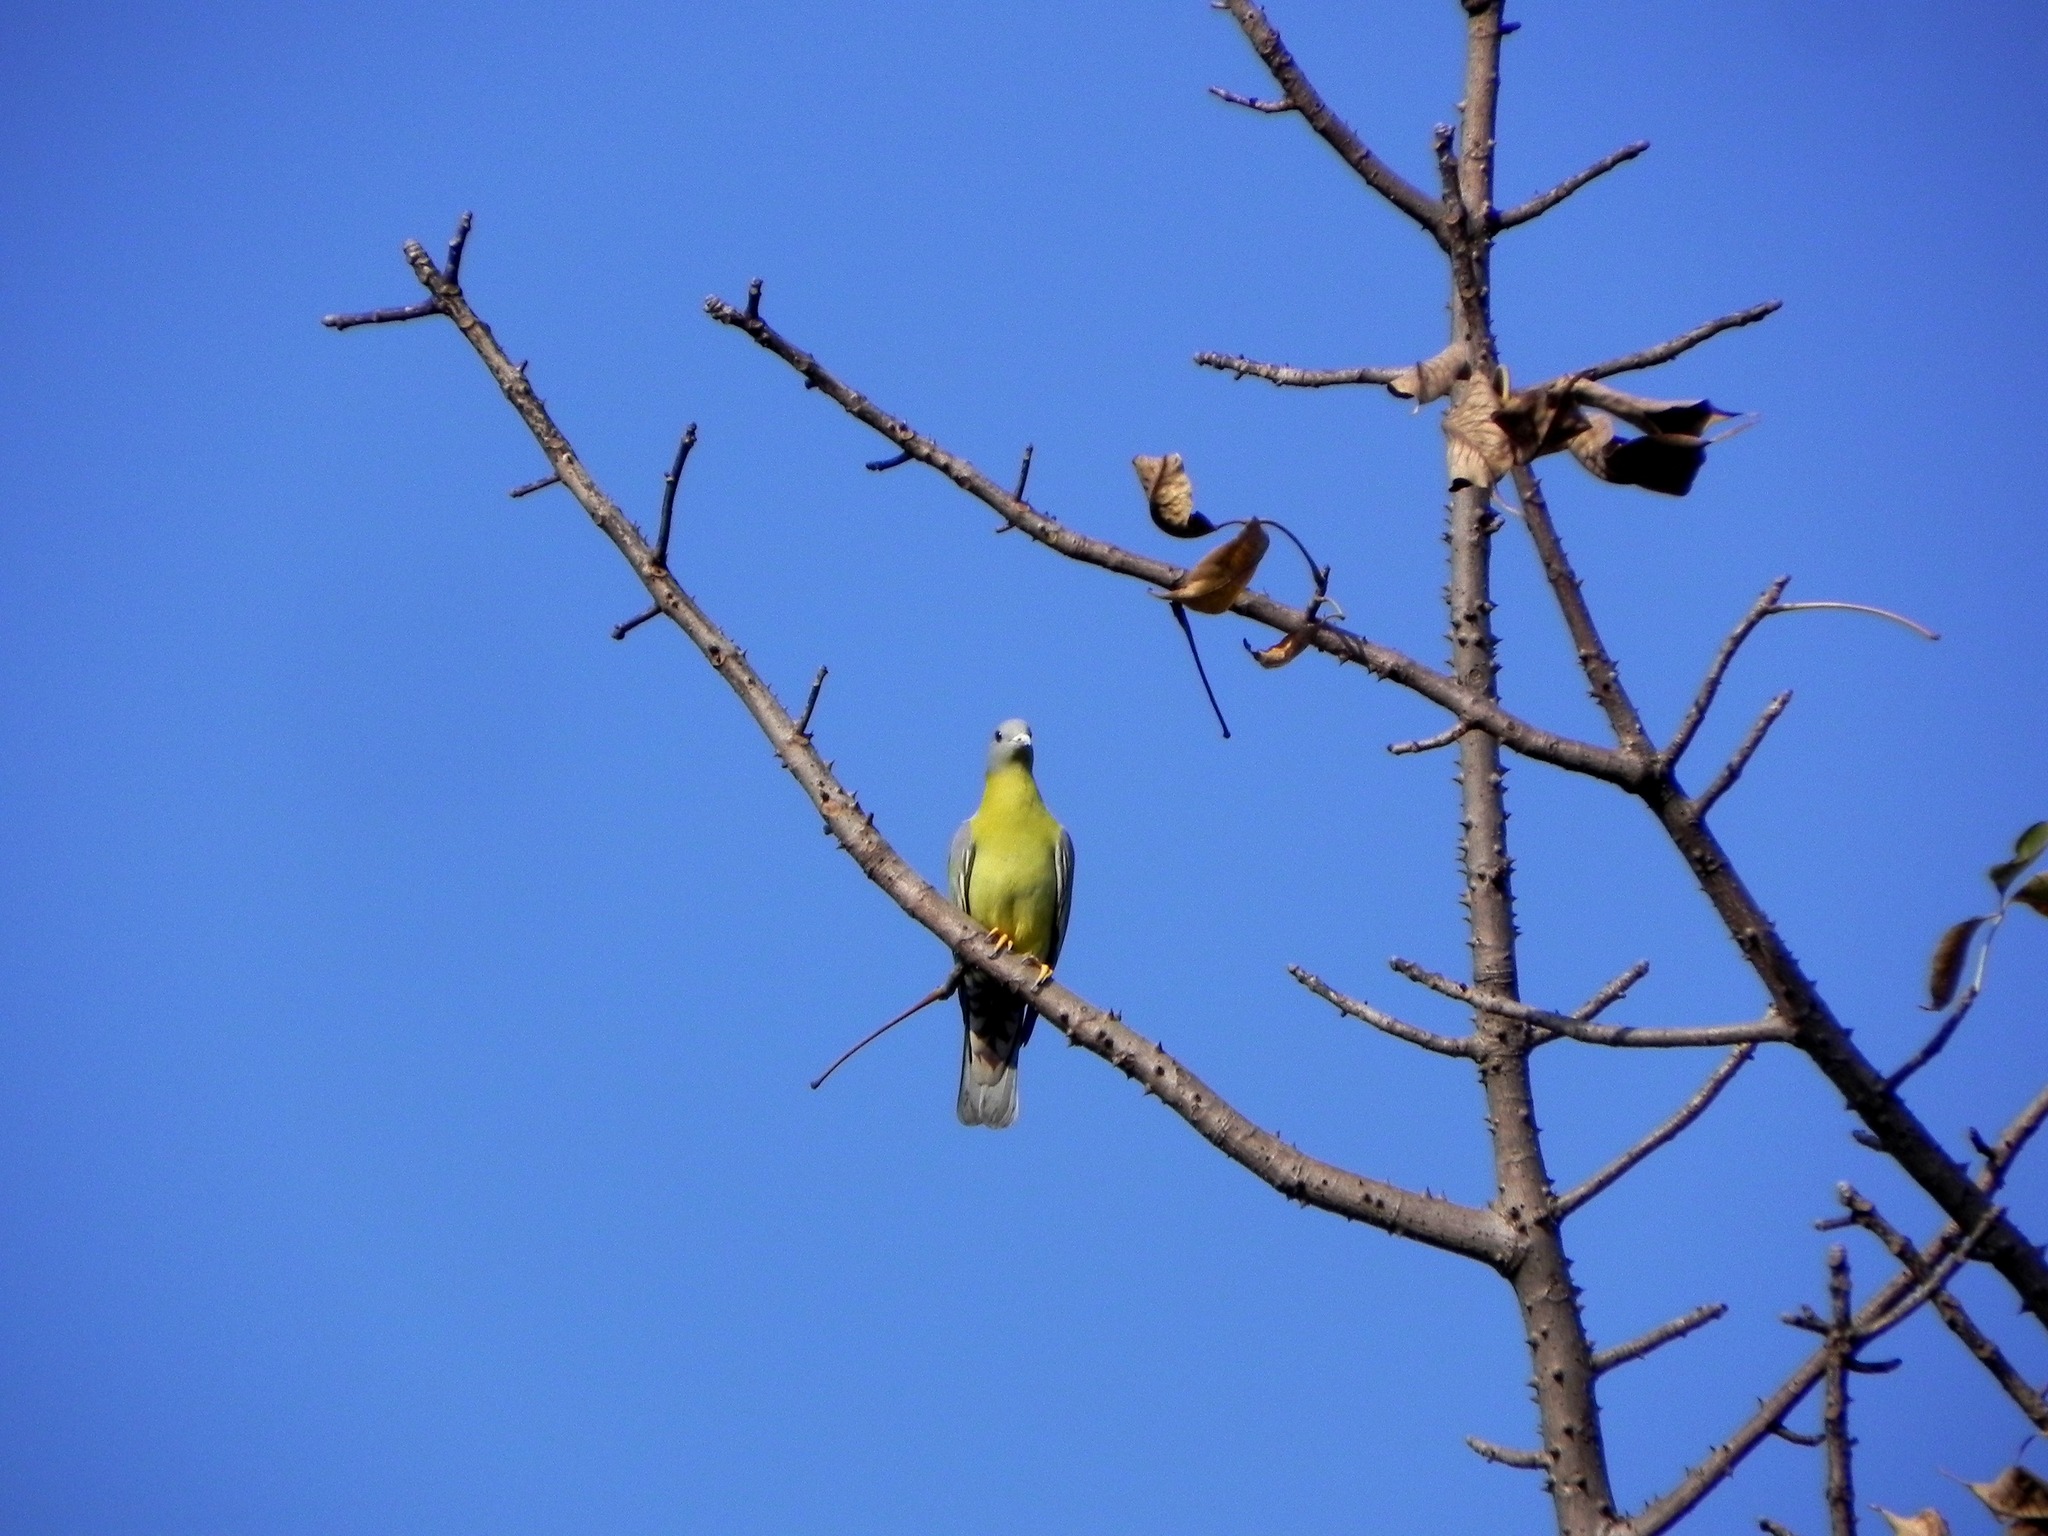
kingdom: Animalia
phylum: Chordata
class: Aves
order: Columbiformes
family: Columbidae
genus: Treron
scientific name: Treron phoenicopterus
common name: Yellow-footed green pigeon
